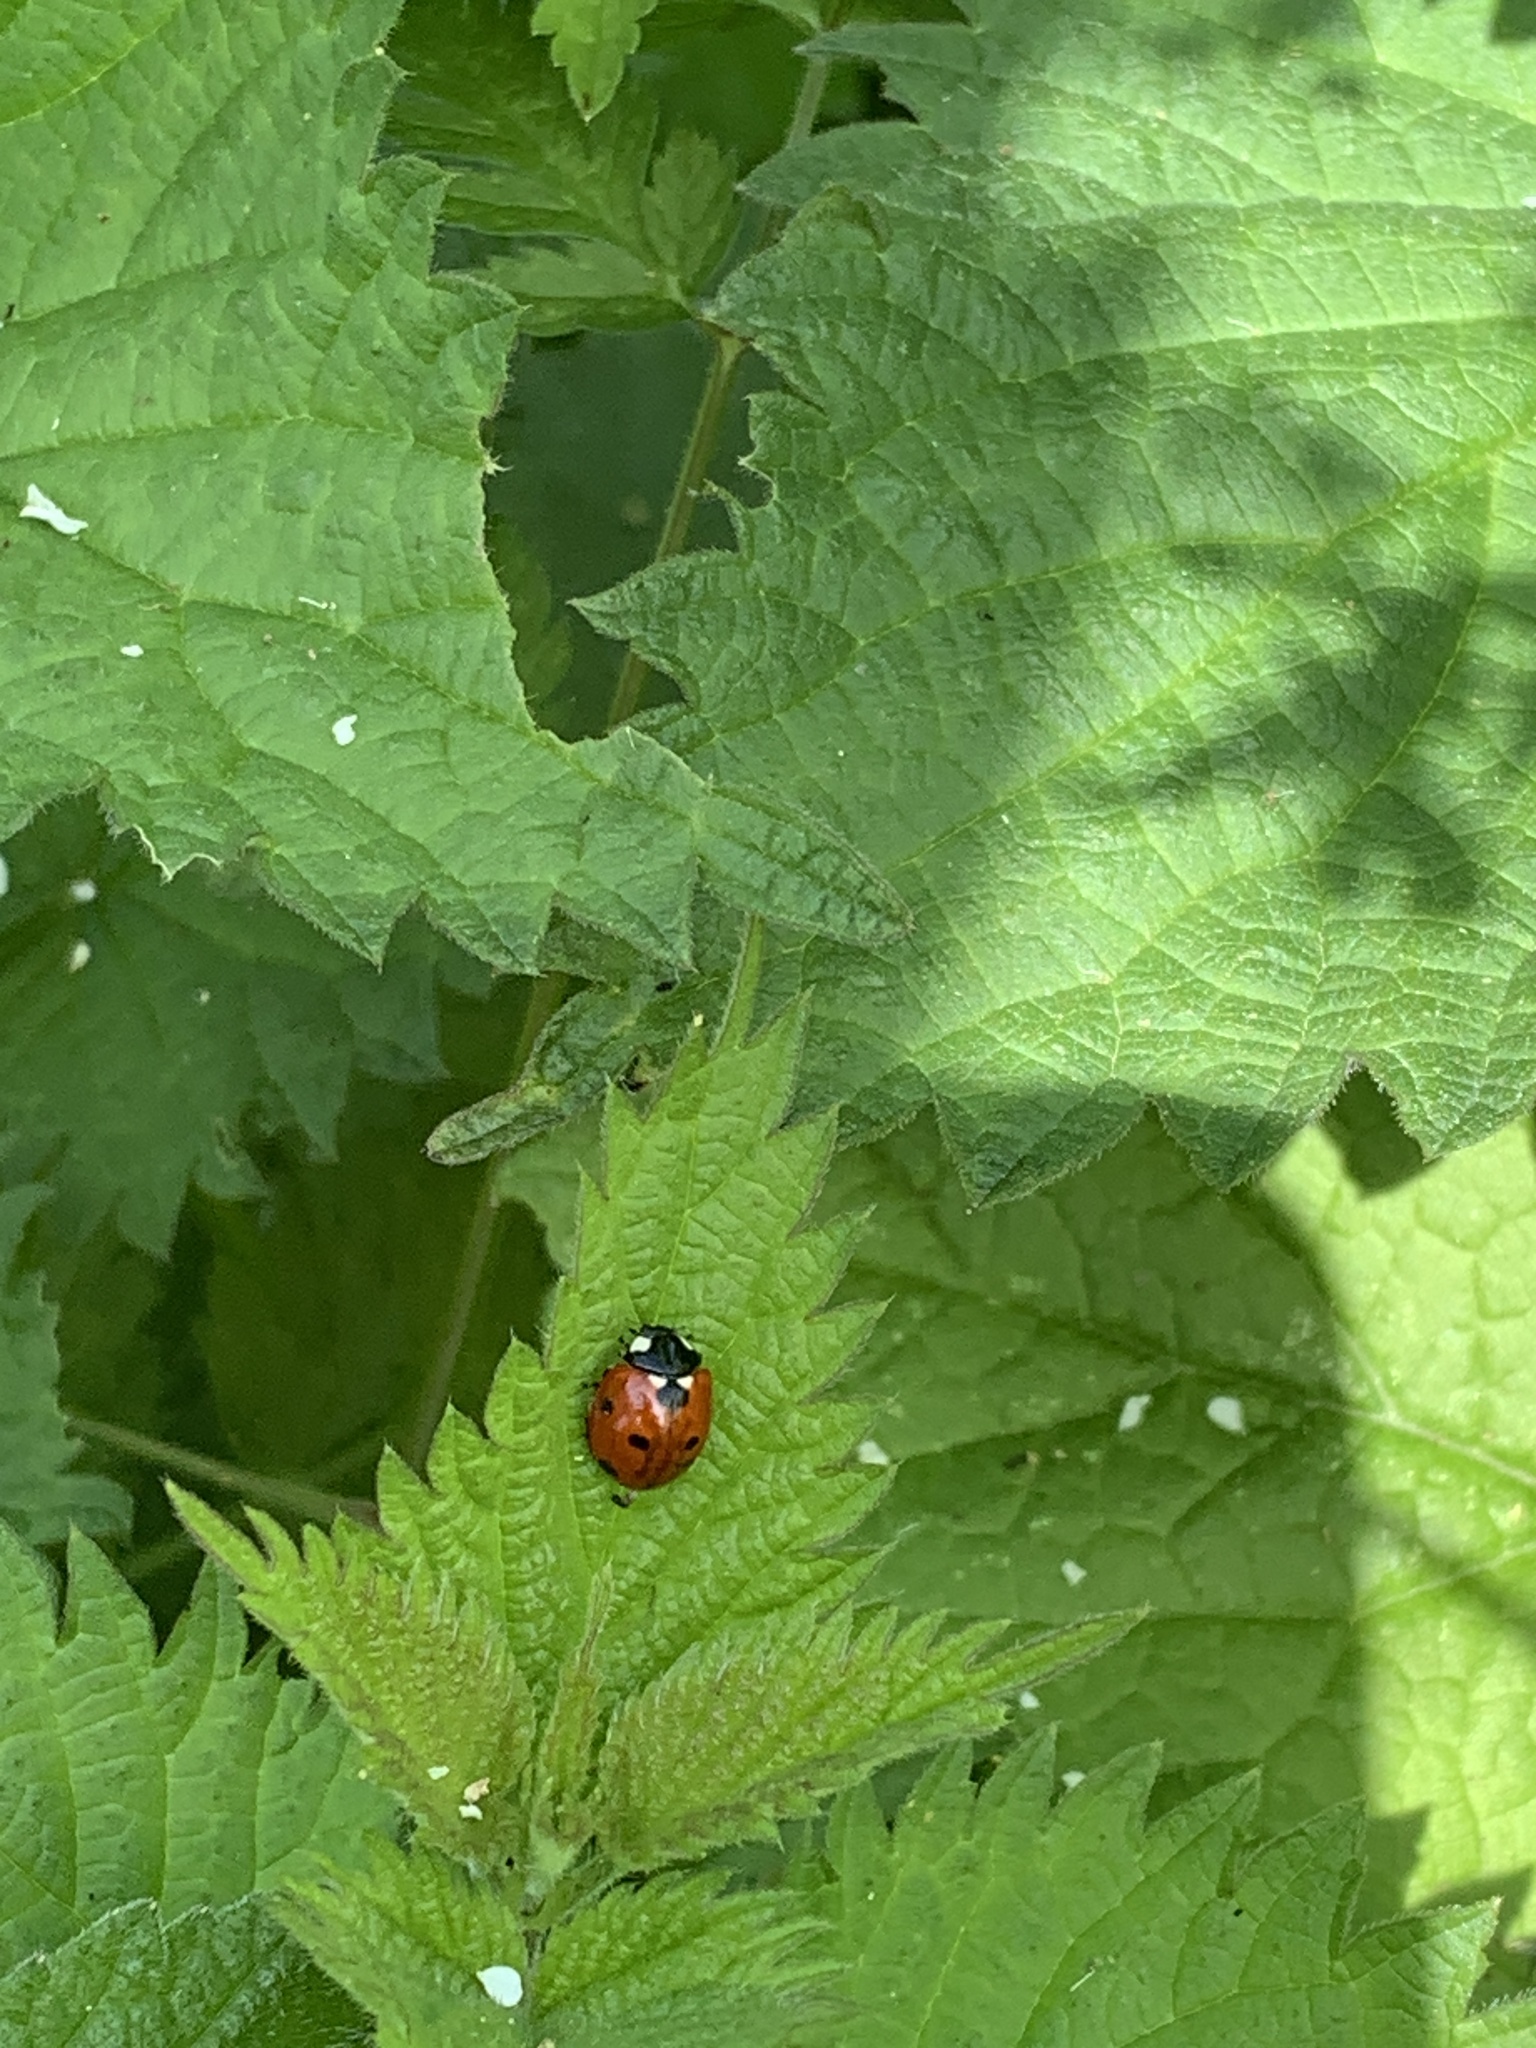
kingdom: Animalia
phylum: Arthropoda
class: Insecta
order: Coleoptera
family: Coccinellidae
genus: Coccinella
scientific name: Coccinella septempunctata
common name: Sevenspotted lady beetle
